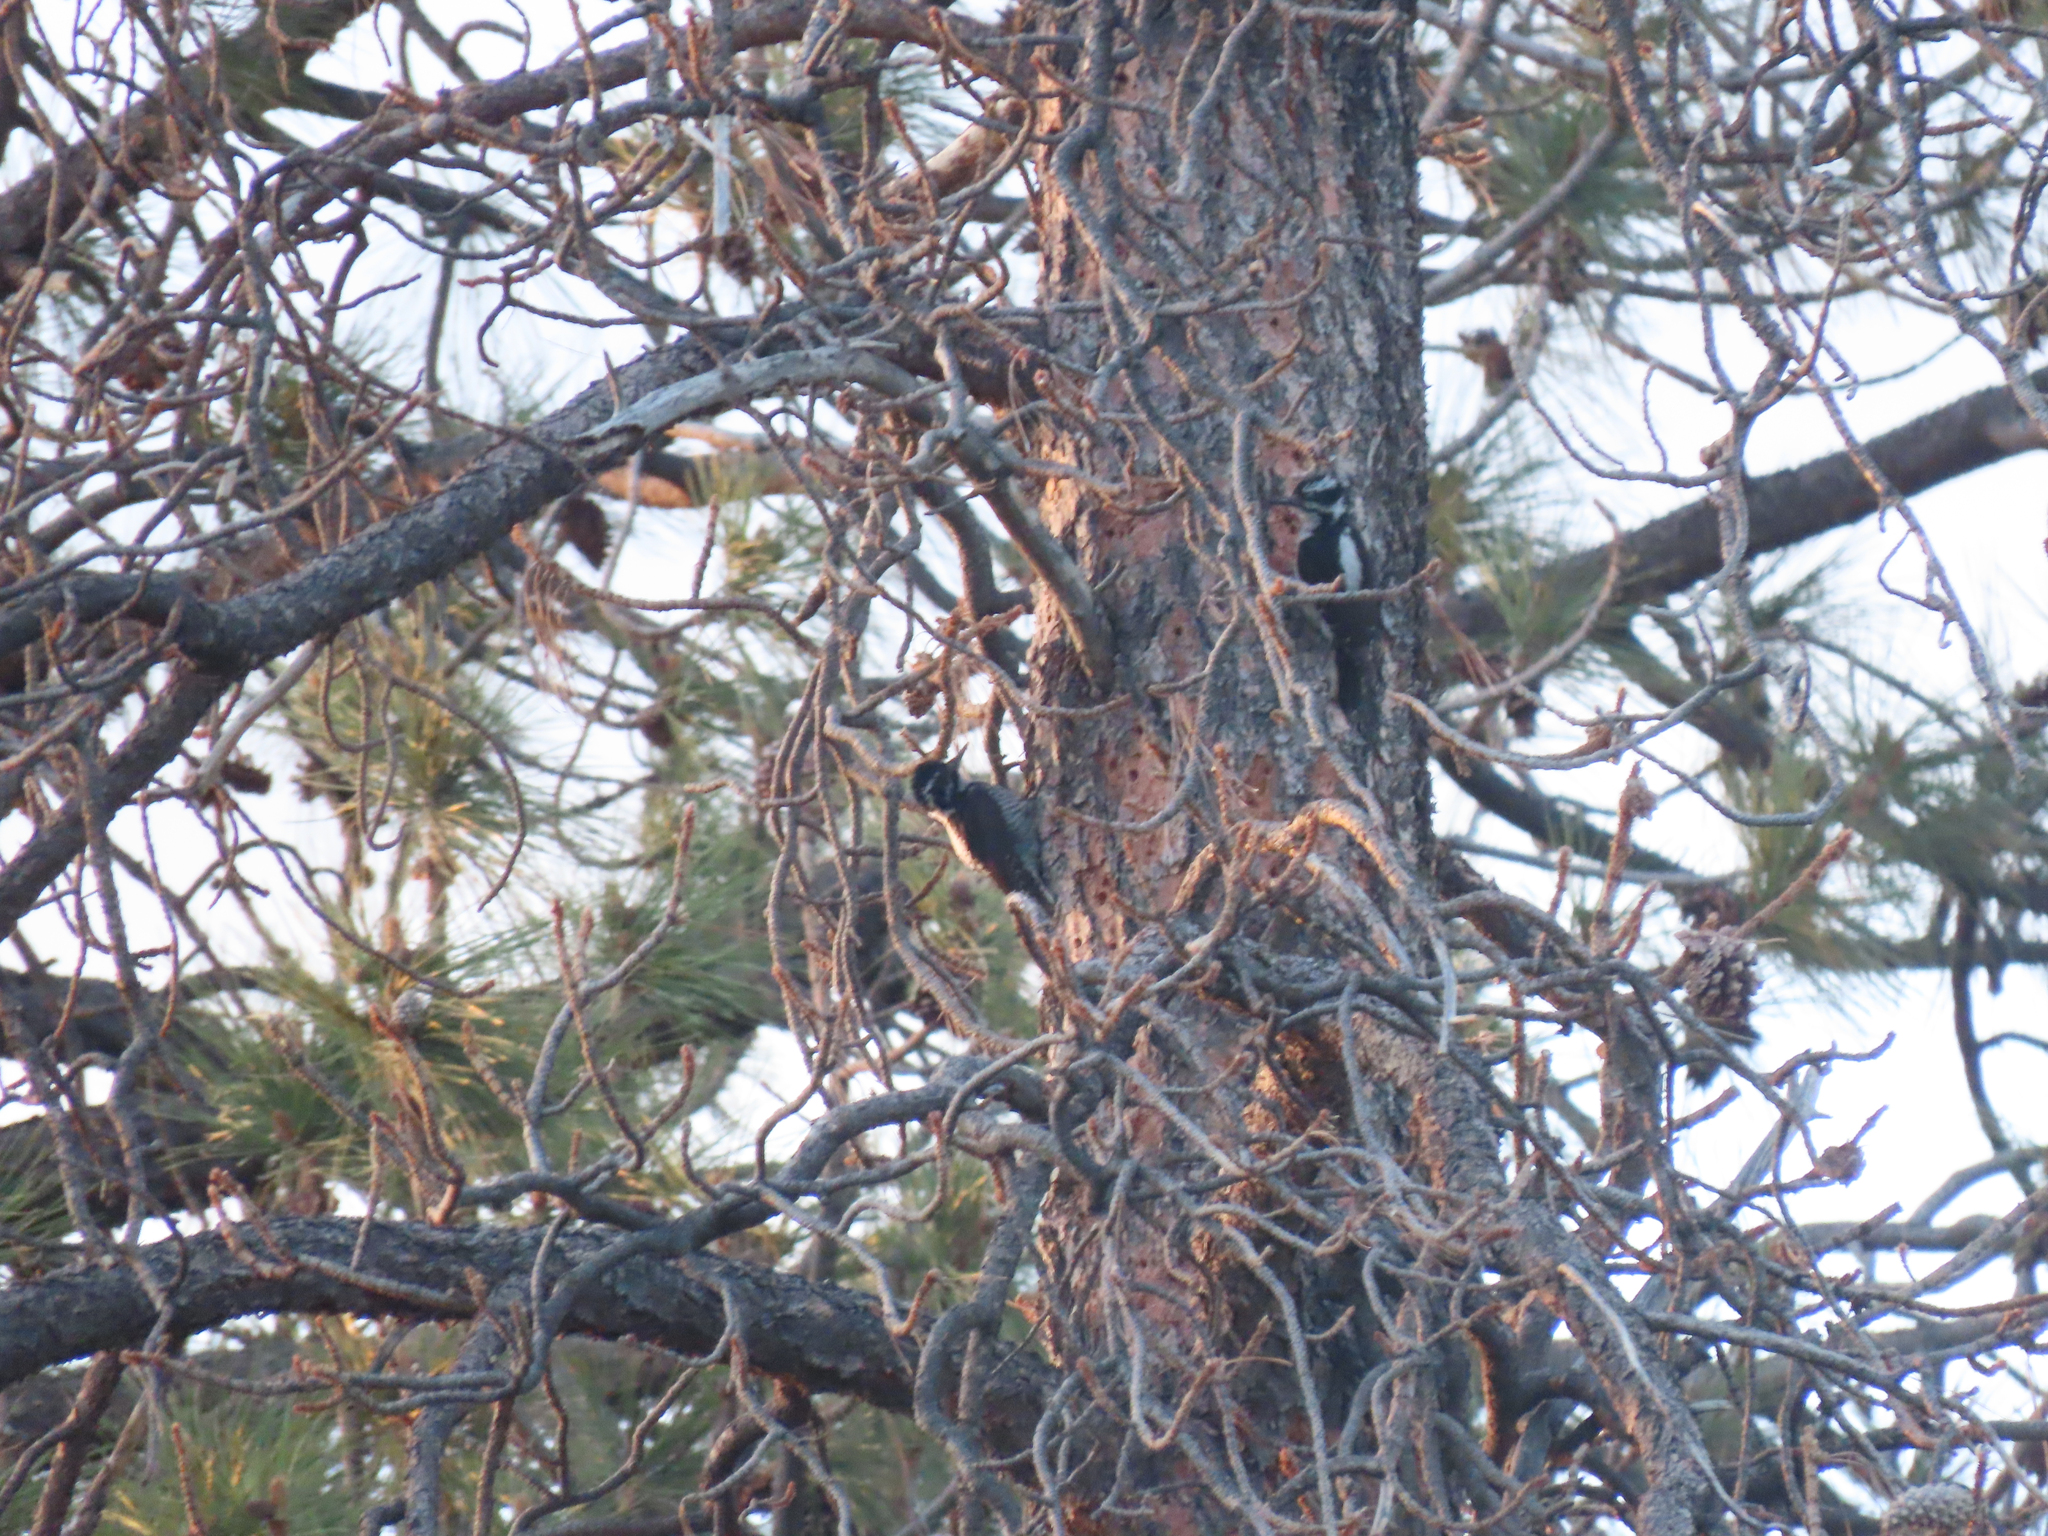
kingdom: Animalia
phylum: Chordata
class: Aves
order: Piciformes
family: Picidae
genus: Picoides
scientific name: Picoides dorsalis
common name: American three-toed woodpecker
